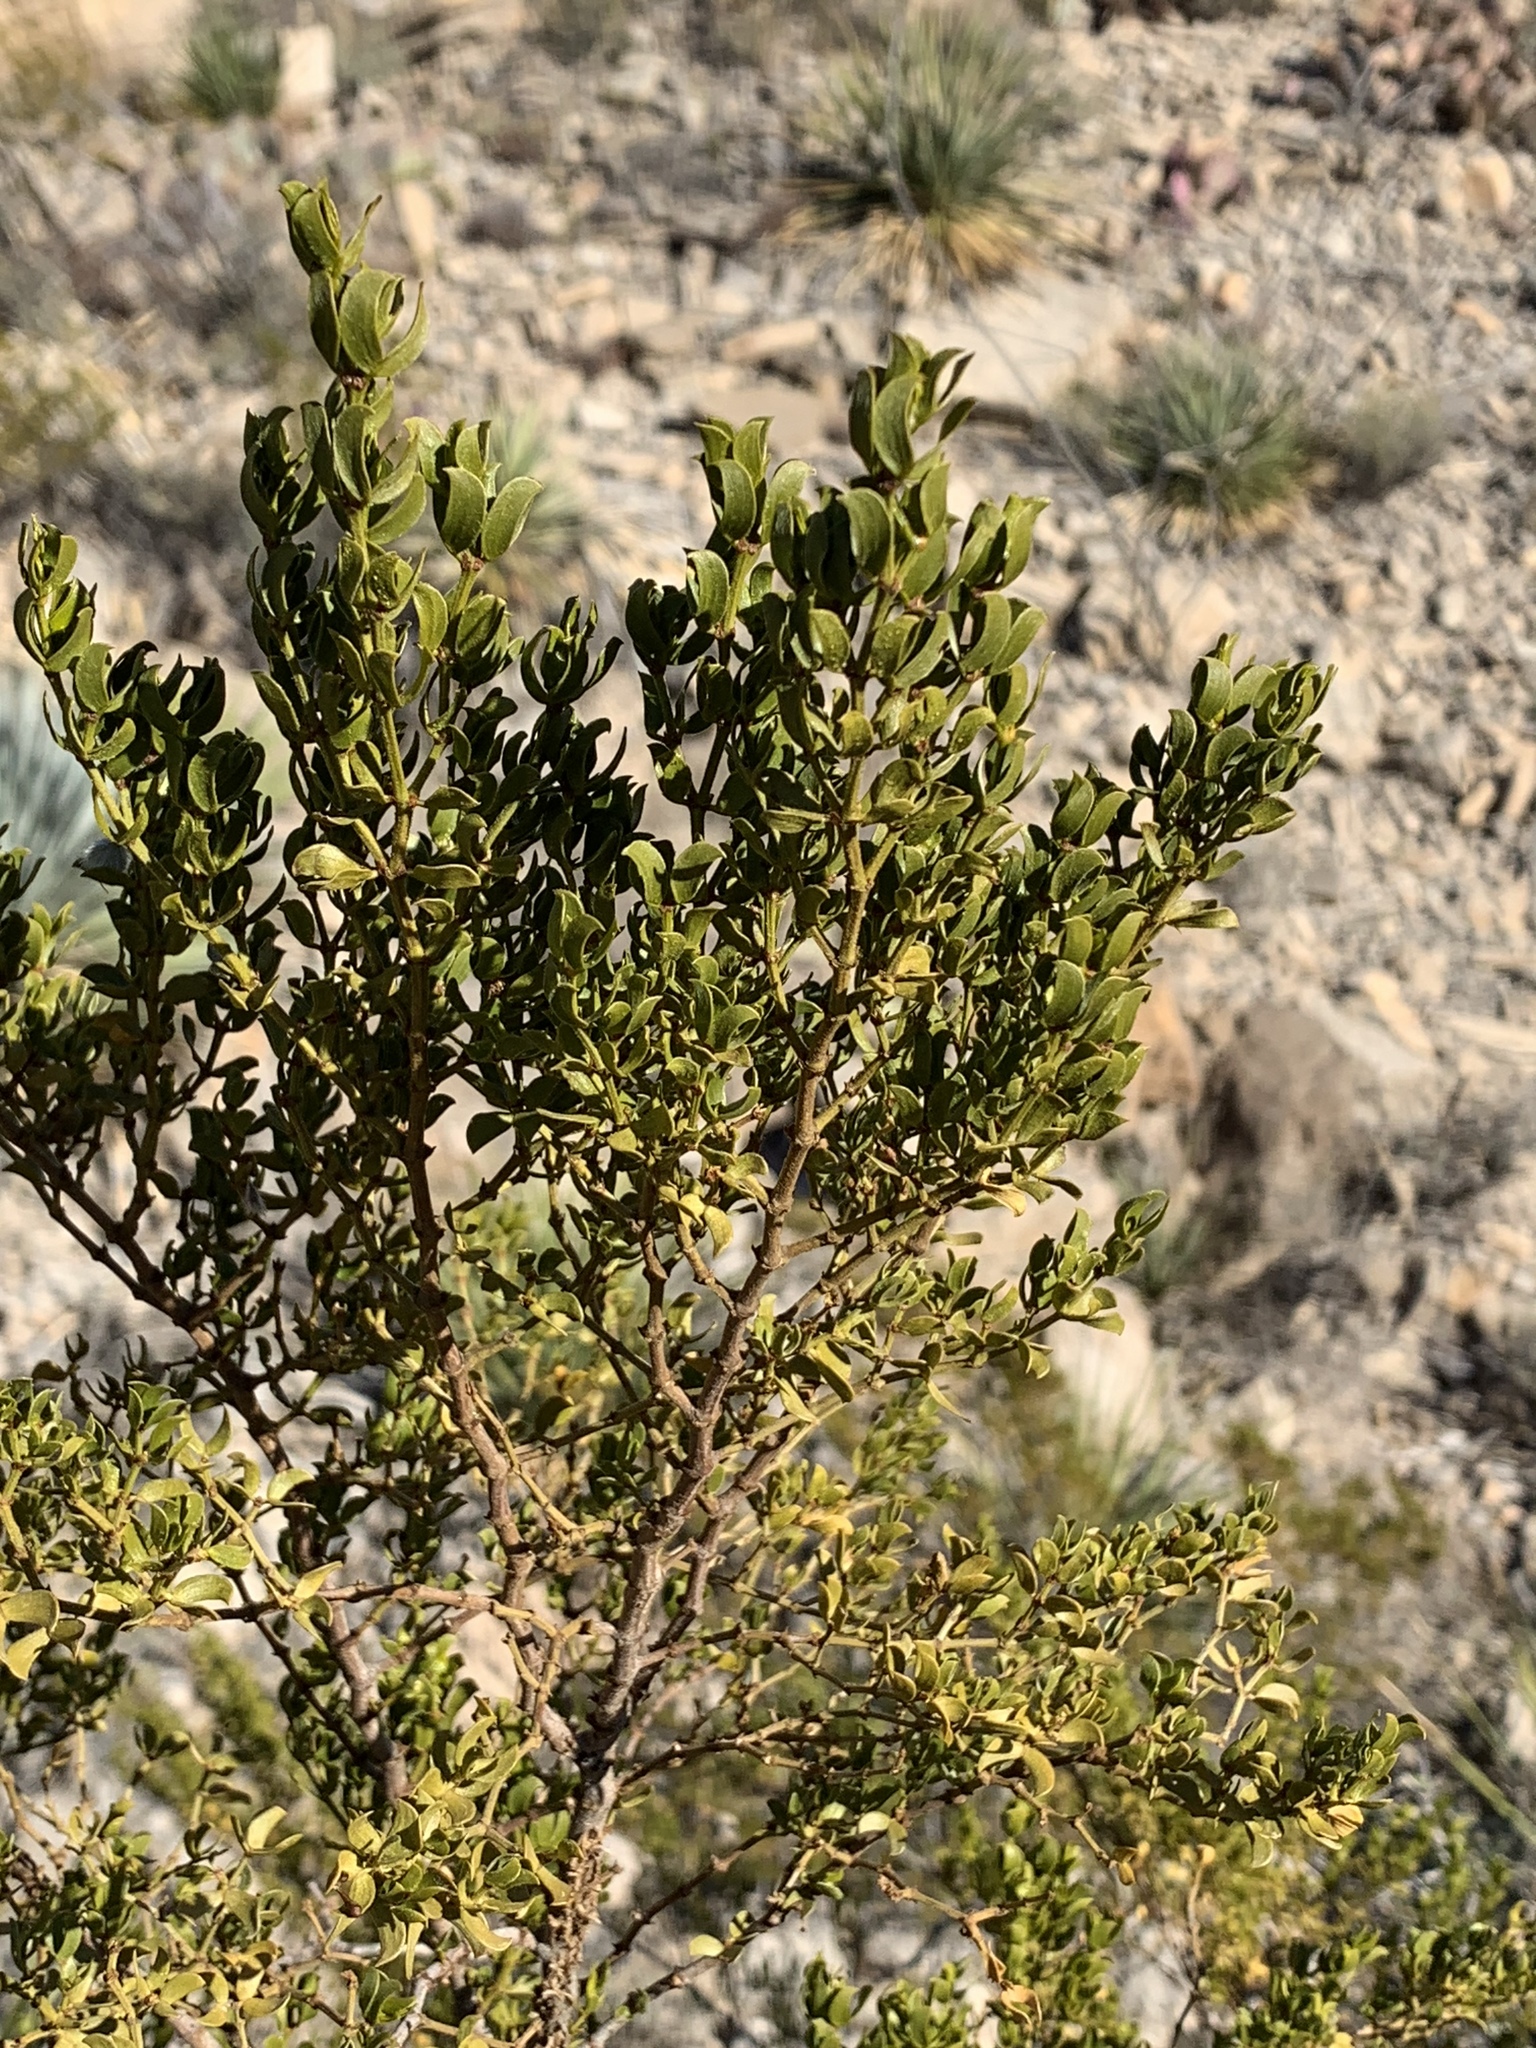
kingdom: Plantae
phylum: Tracheophyta
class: Magnoliopsida
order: Zygophyllales
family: Zygophyllaceae
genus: Larrea
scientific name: Larrea tridentata
